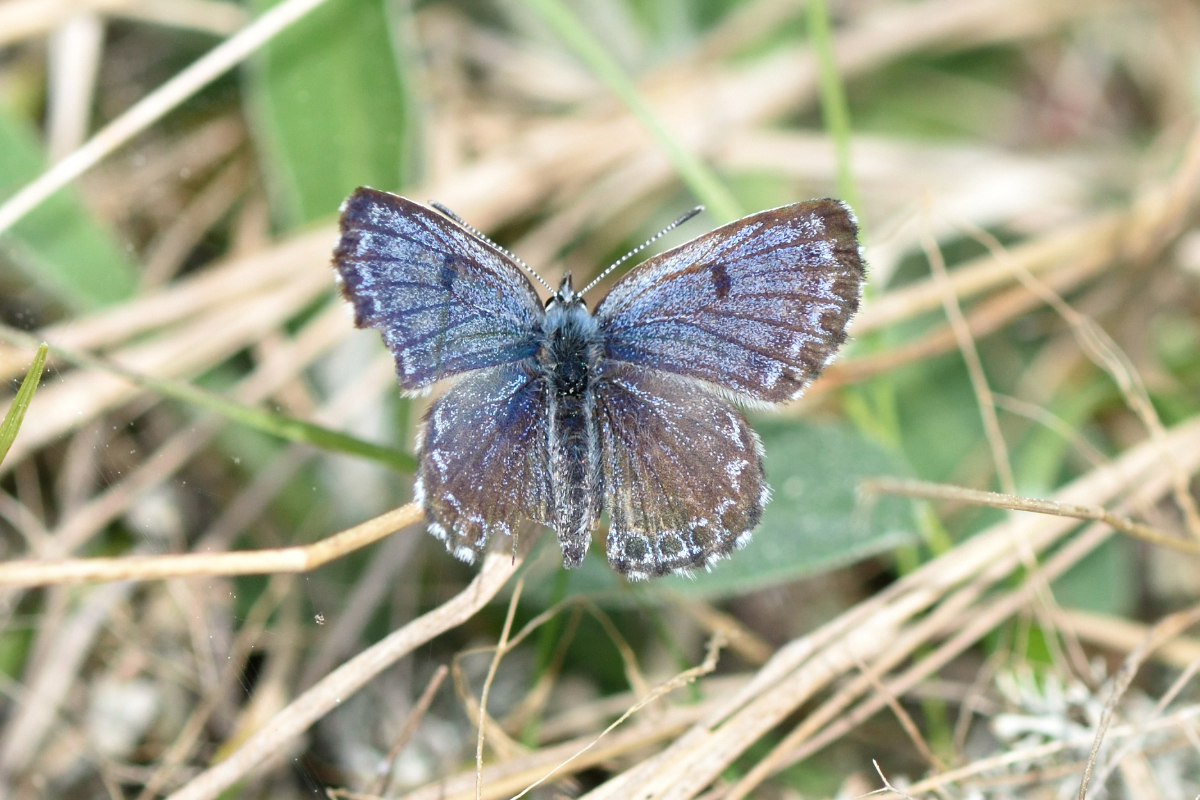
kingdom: Animalia
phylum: Arthropoda
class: Insecta
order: Lepidoptera
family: Lycaenidae
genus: Scolitantides
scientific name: Scolitantides orion
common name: Chequered blue
